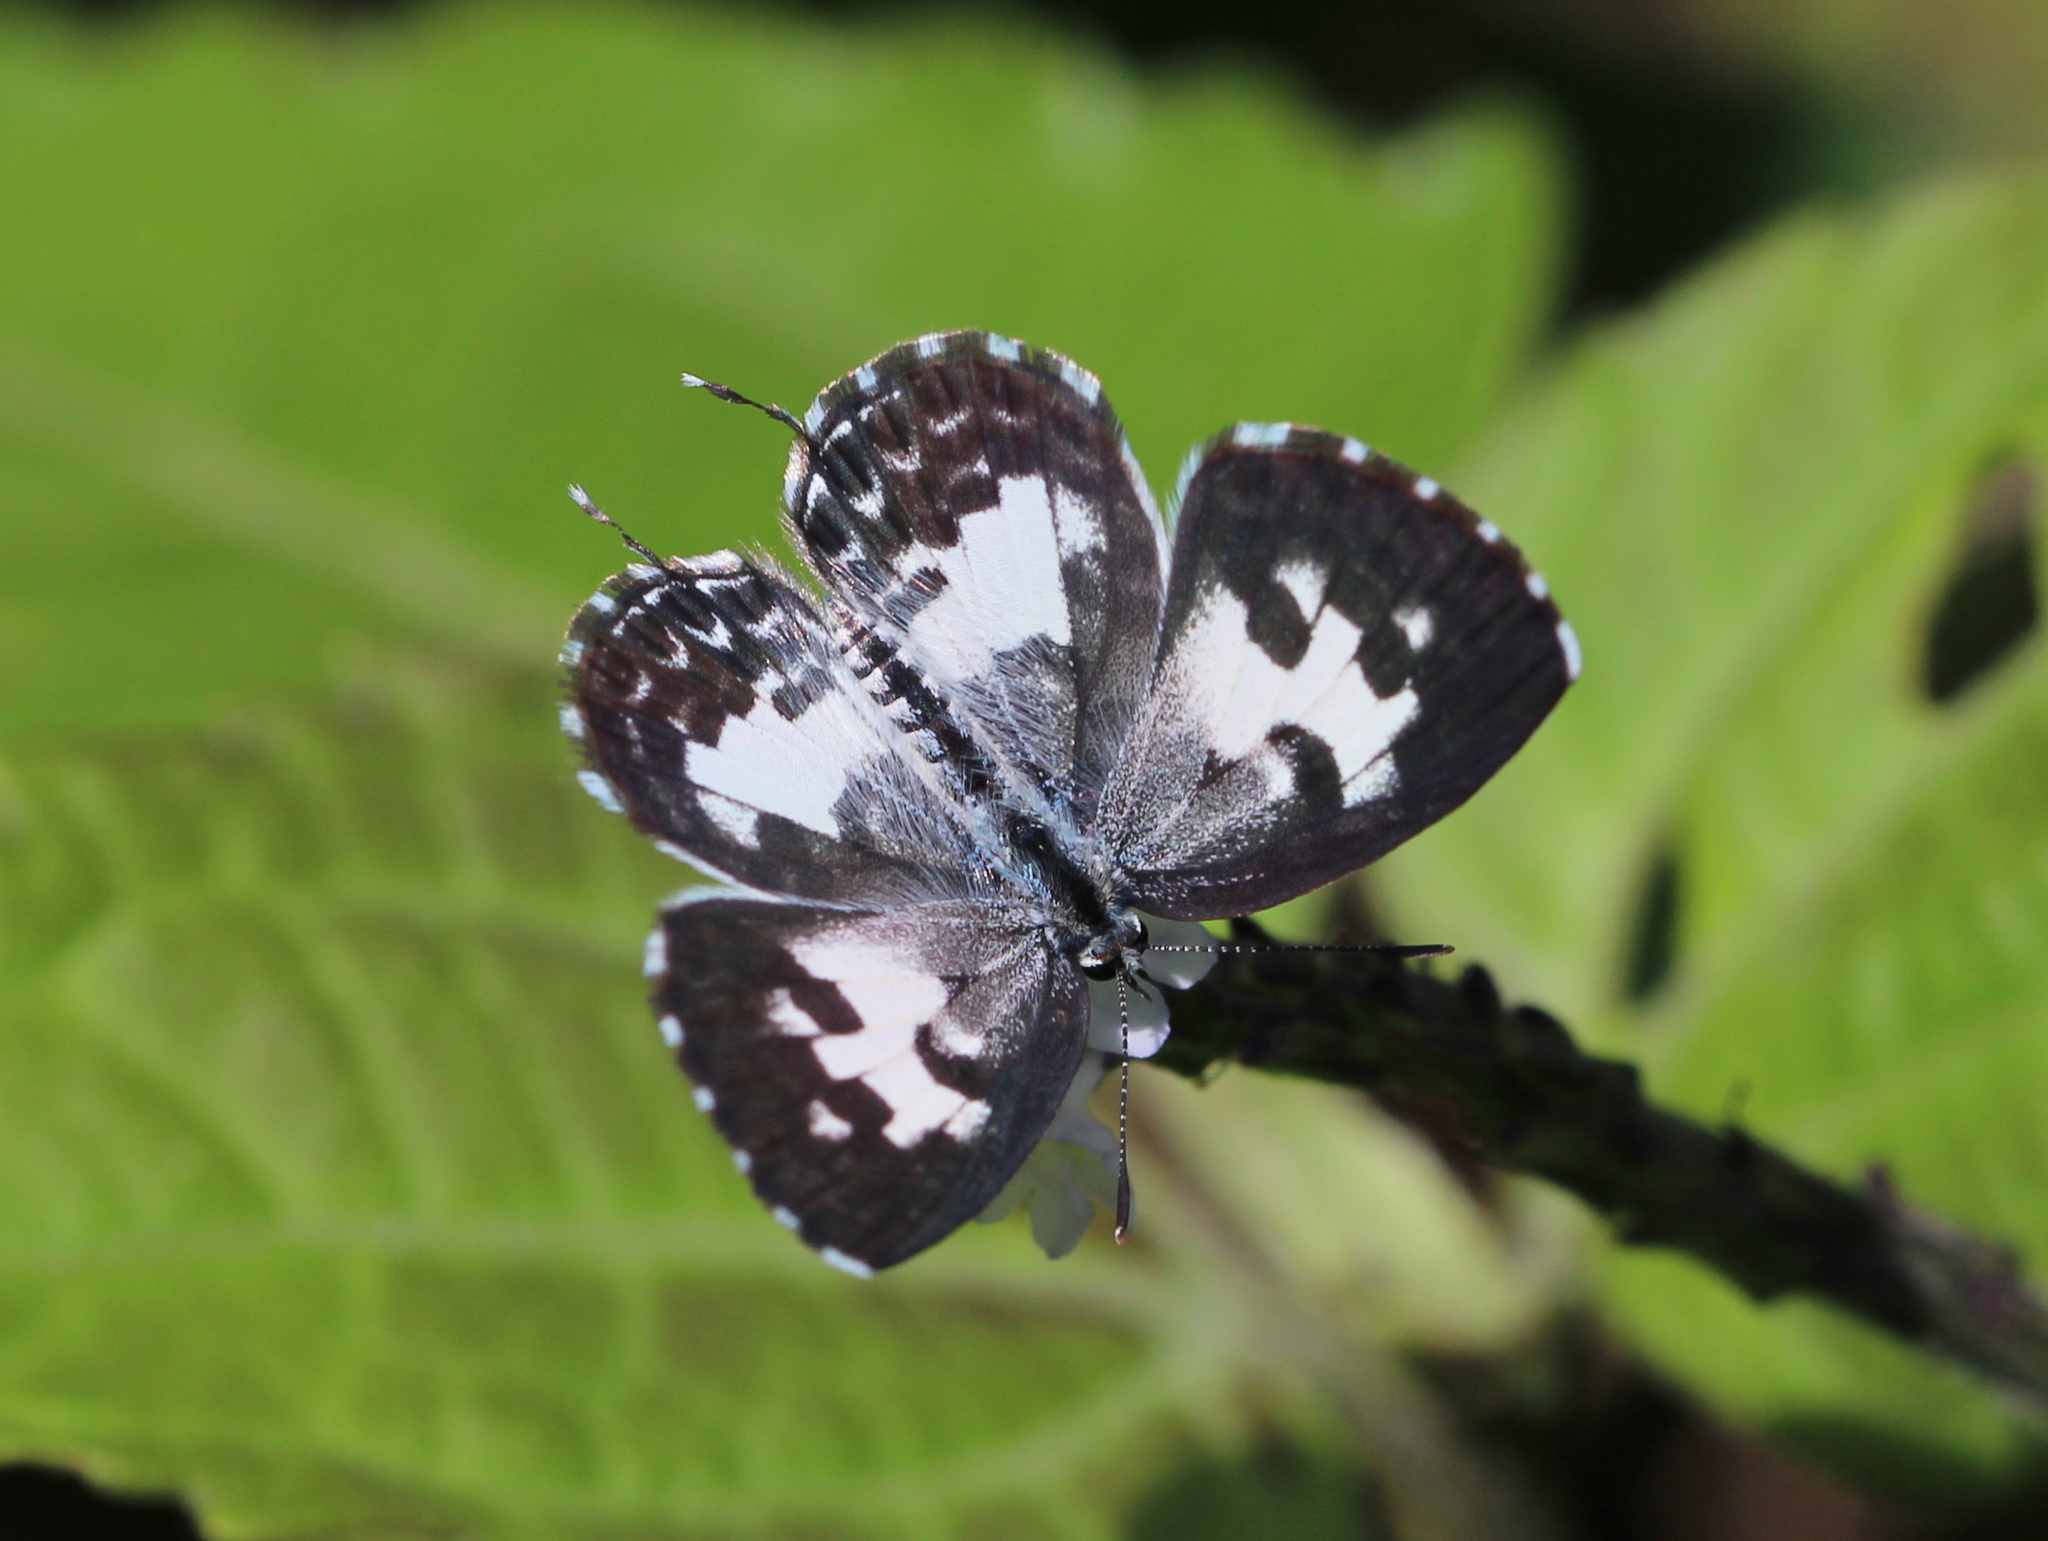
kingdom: Animalia
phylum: Arthropoda
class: Insecta
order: Lepidoptera
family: Lycaenidae
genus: Castalius
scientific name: Castalius rosimon
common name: Common pierrot
